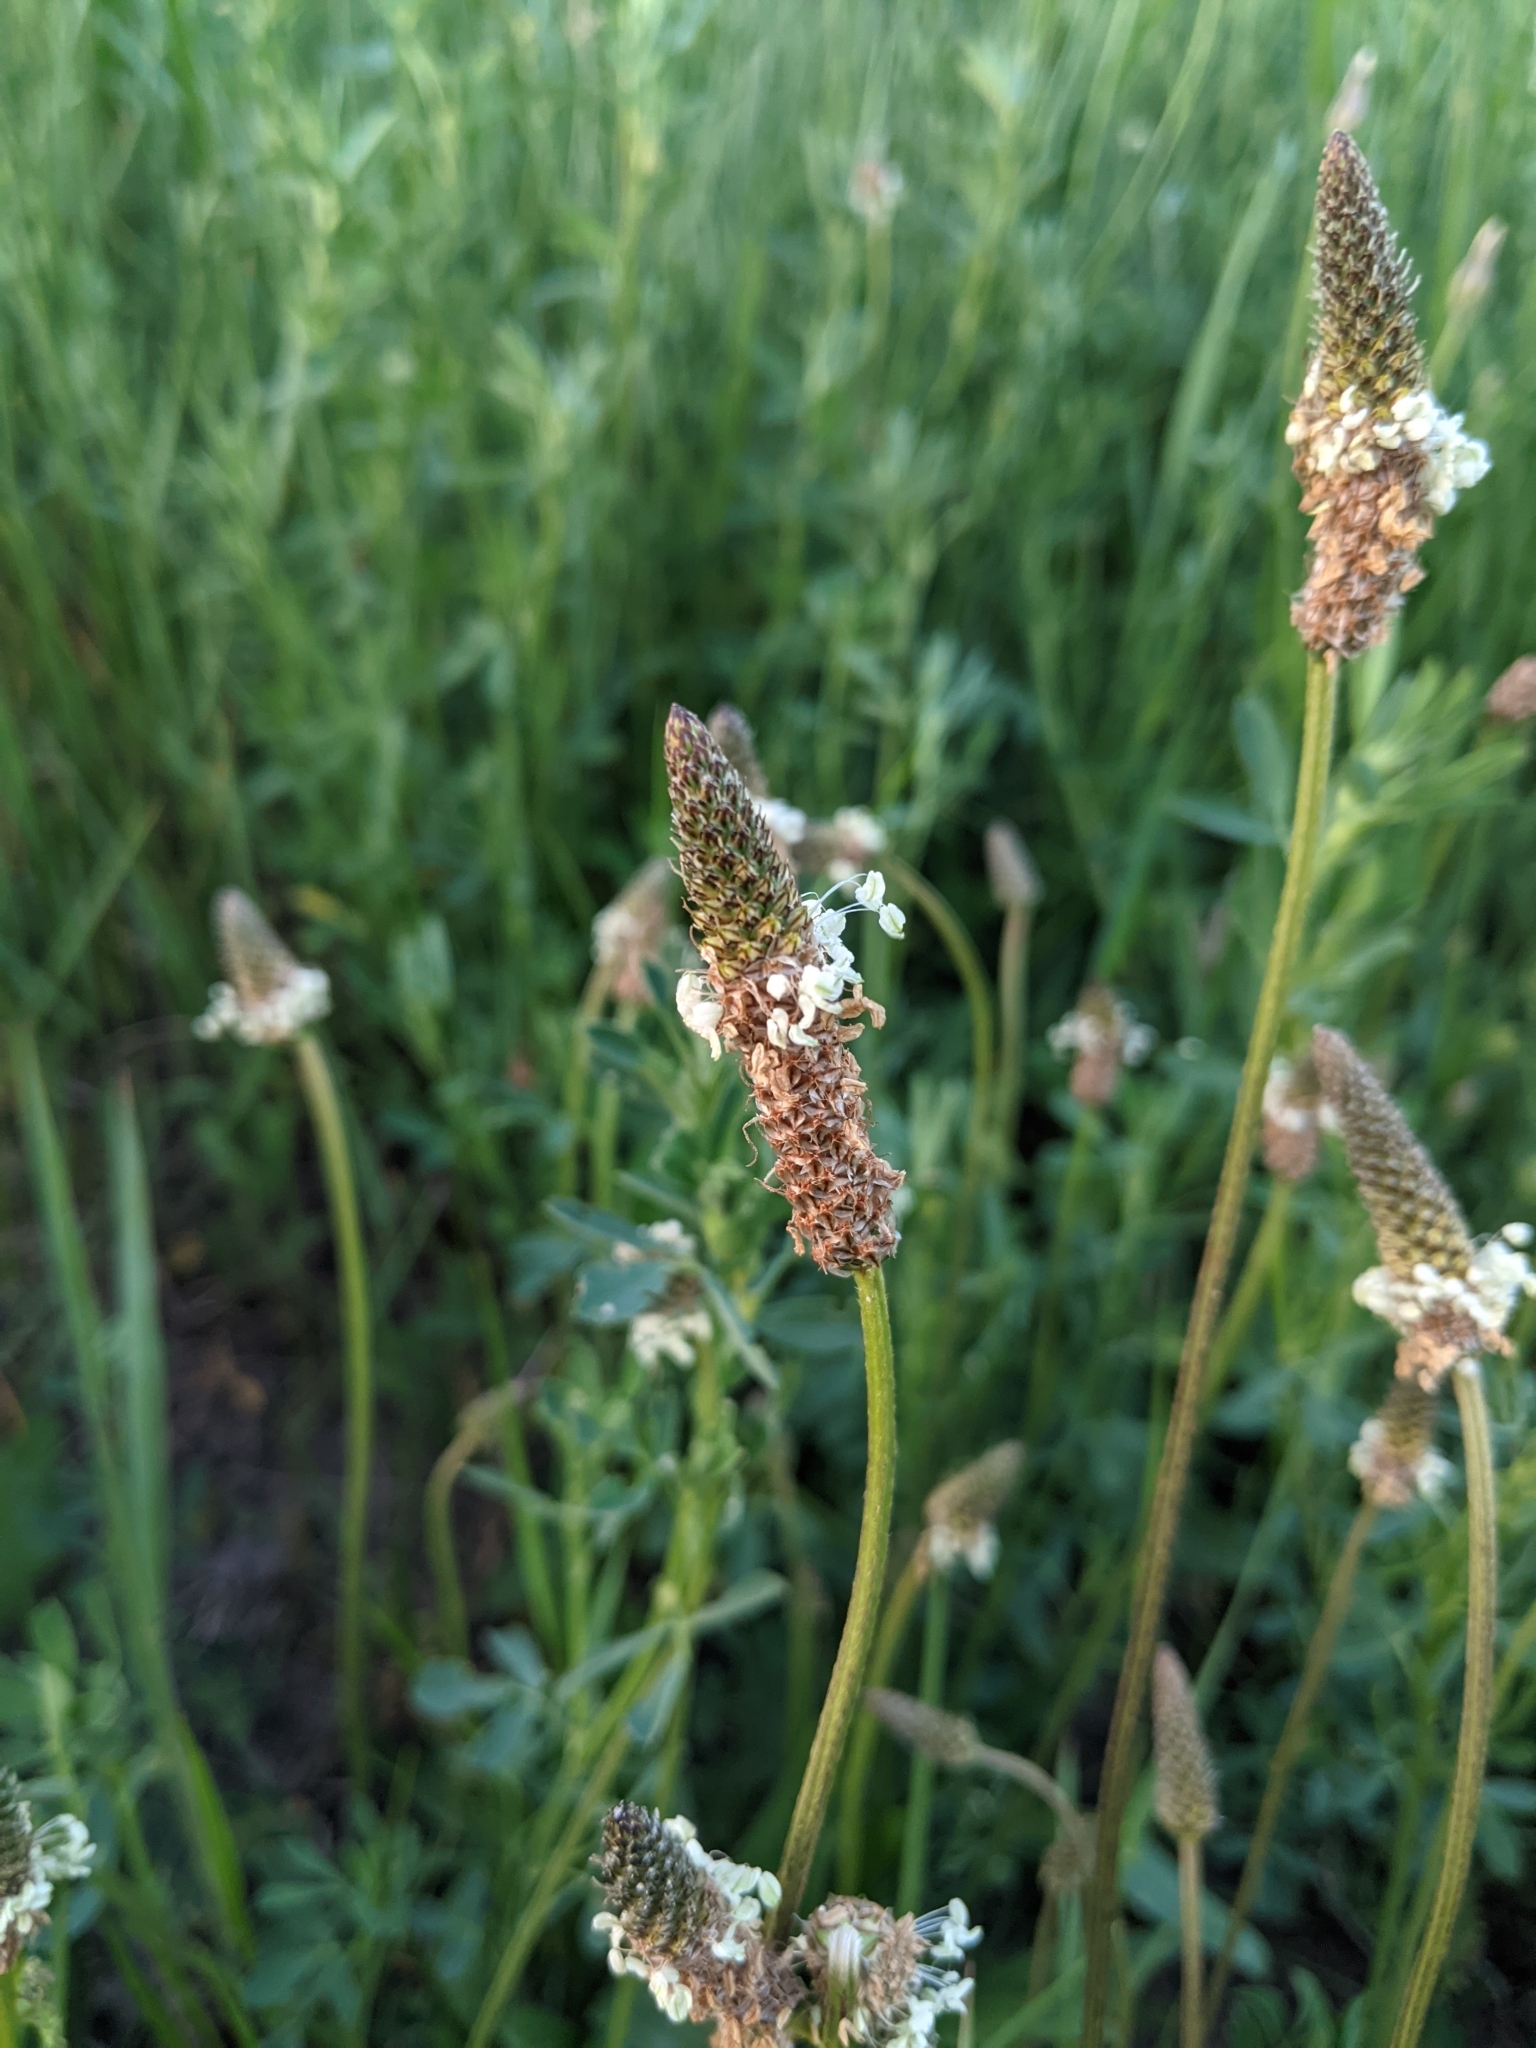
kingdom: Plantae
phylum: Tracheophyta
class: Magnoliopsida
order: Lamiales
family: Plantaginaceae
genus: Plantago
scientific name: Plantago lanceolata
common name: Ribwort plantain
